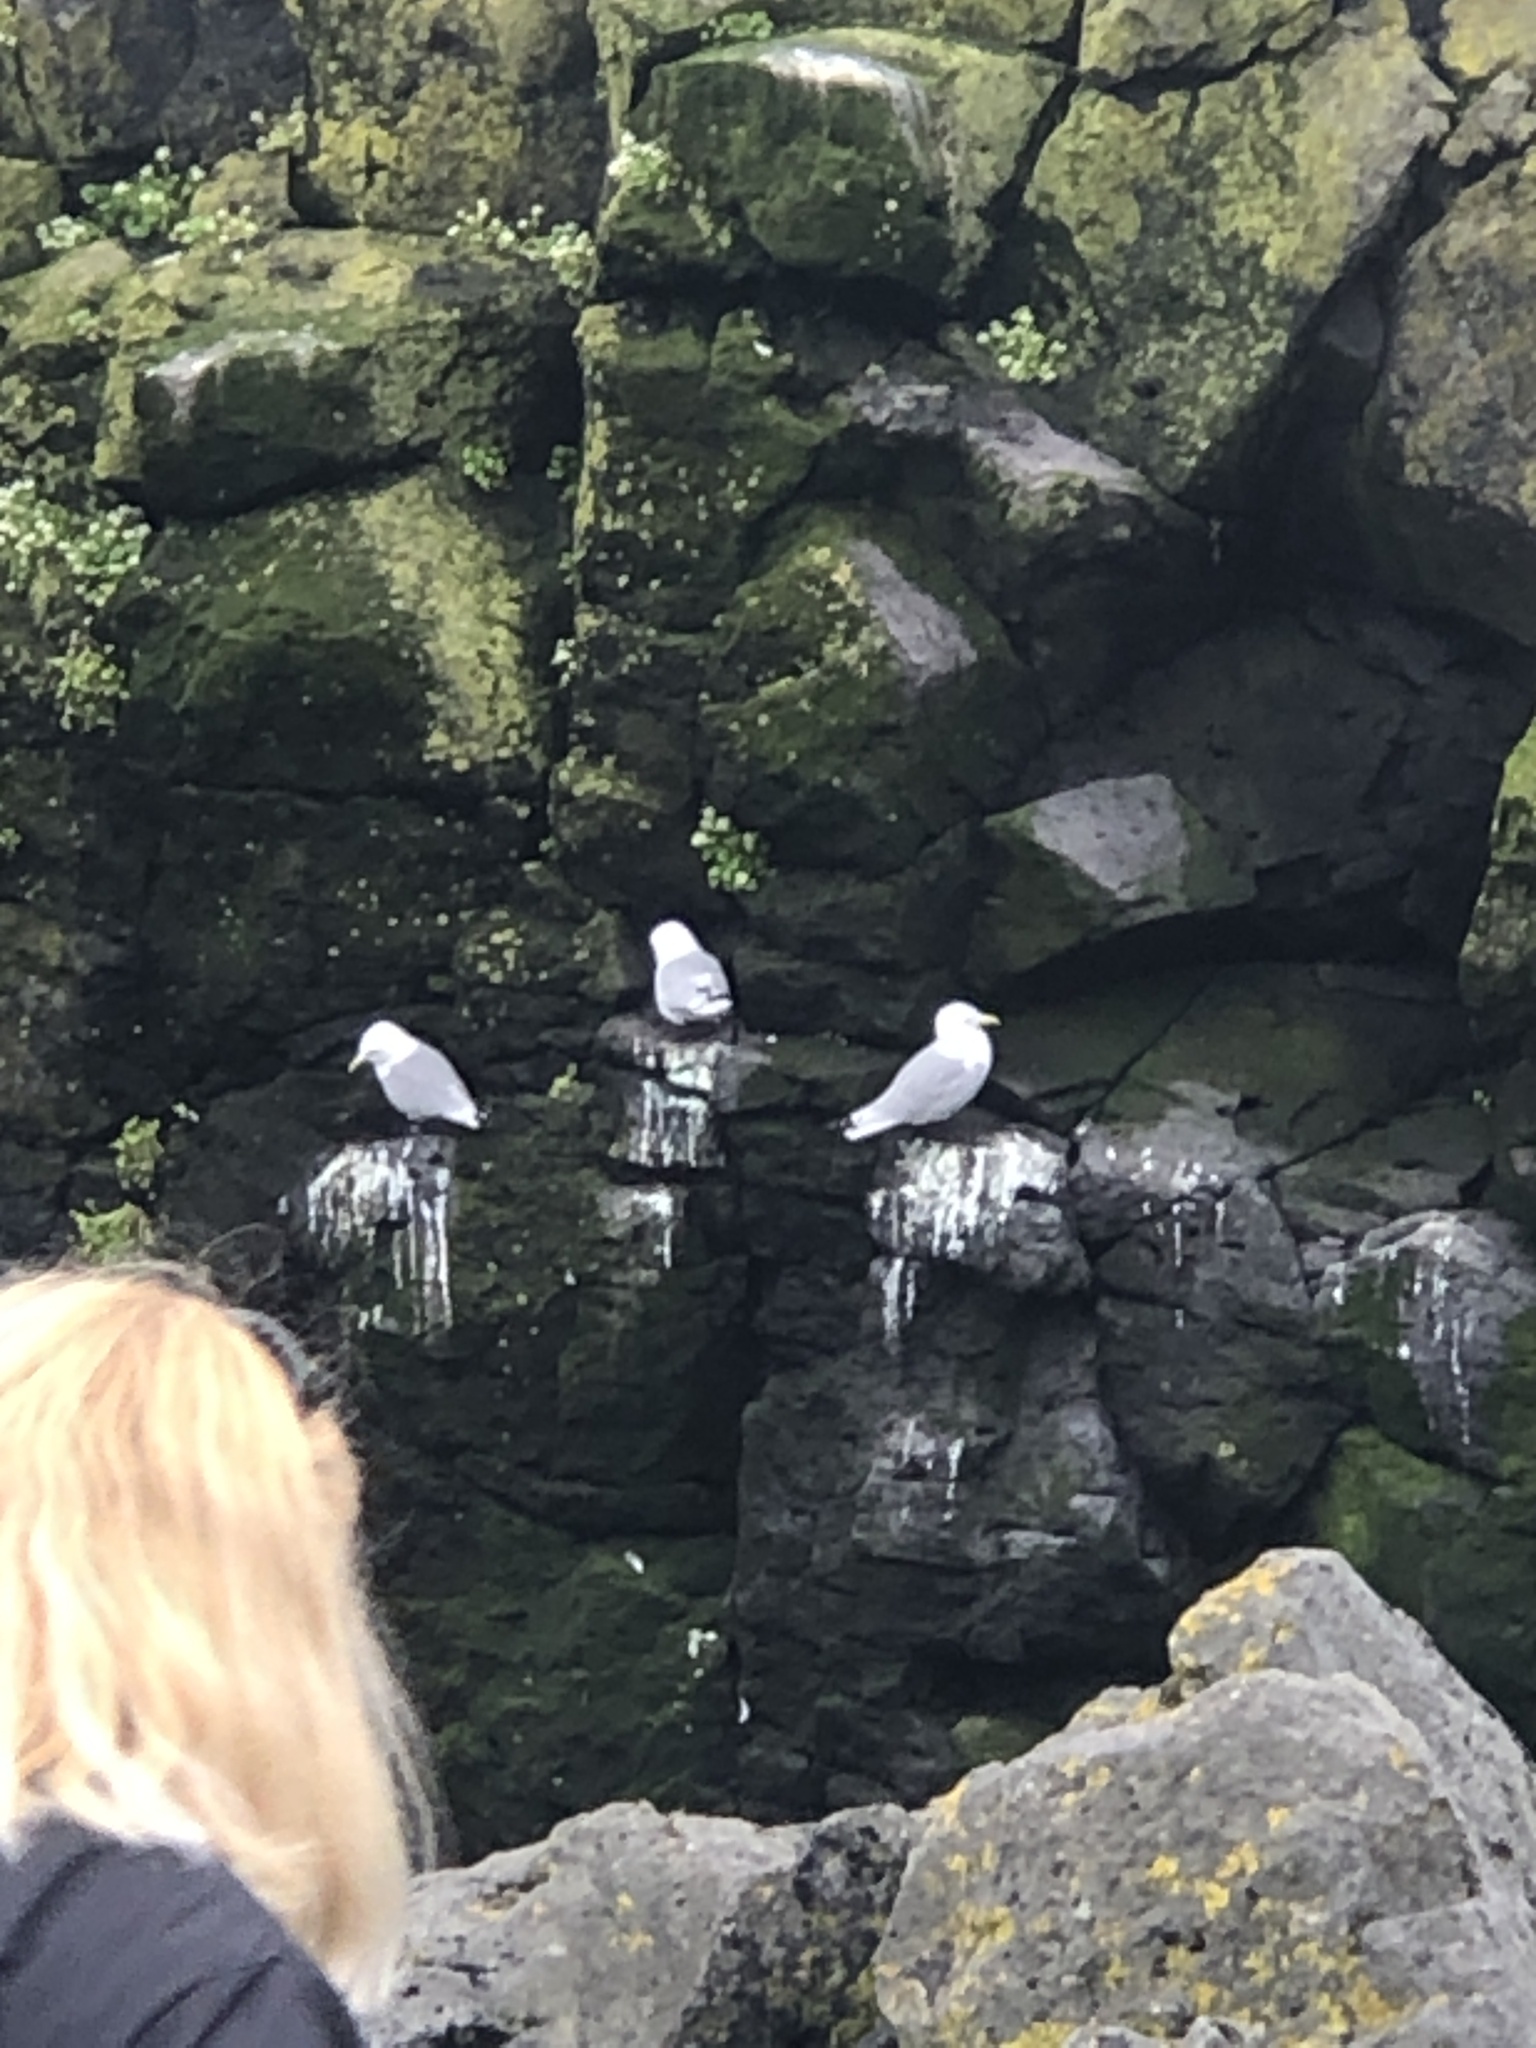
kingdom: Animalia
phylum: Chordata
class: Aves
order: Charadriiformes
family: Laridae
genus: Rissa
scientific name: Rissa tridactyla
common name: Black-legged kittiwake
